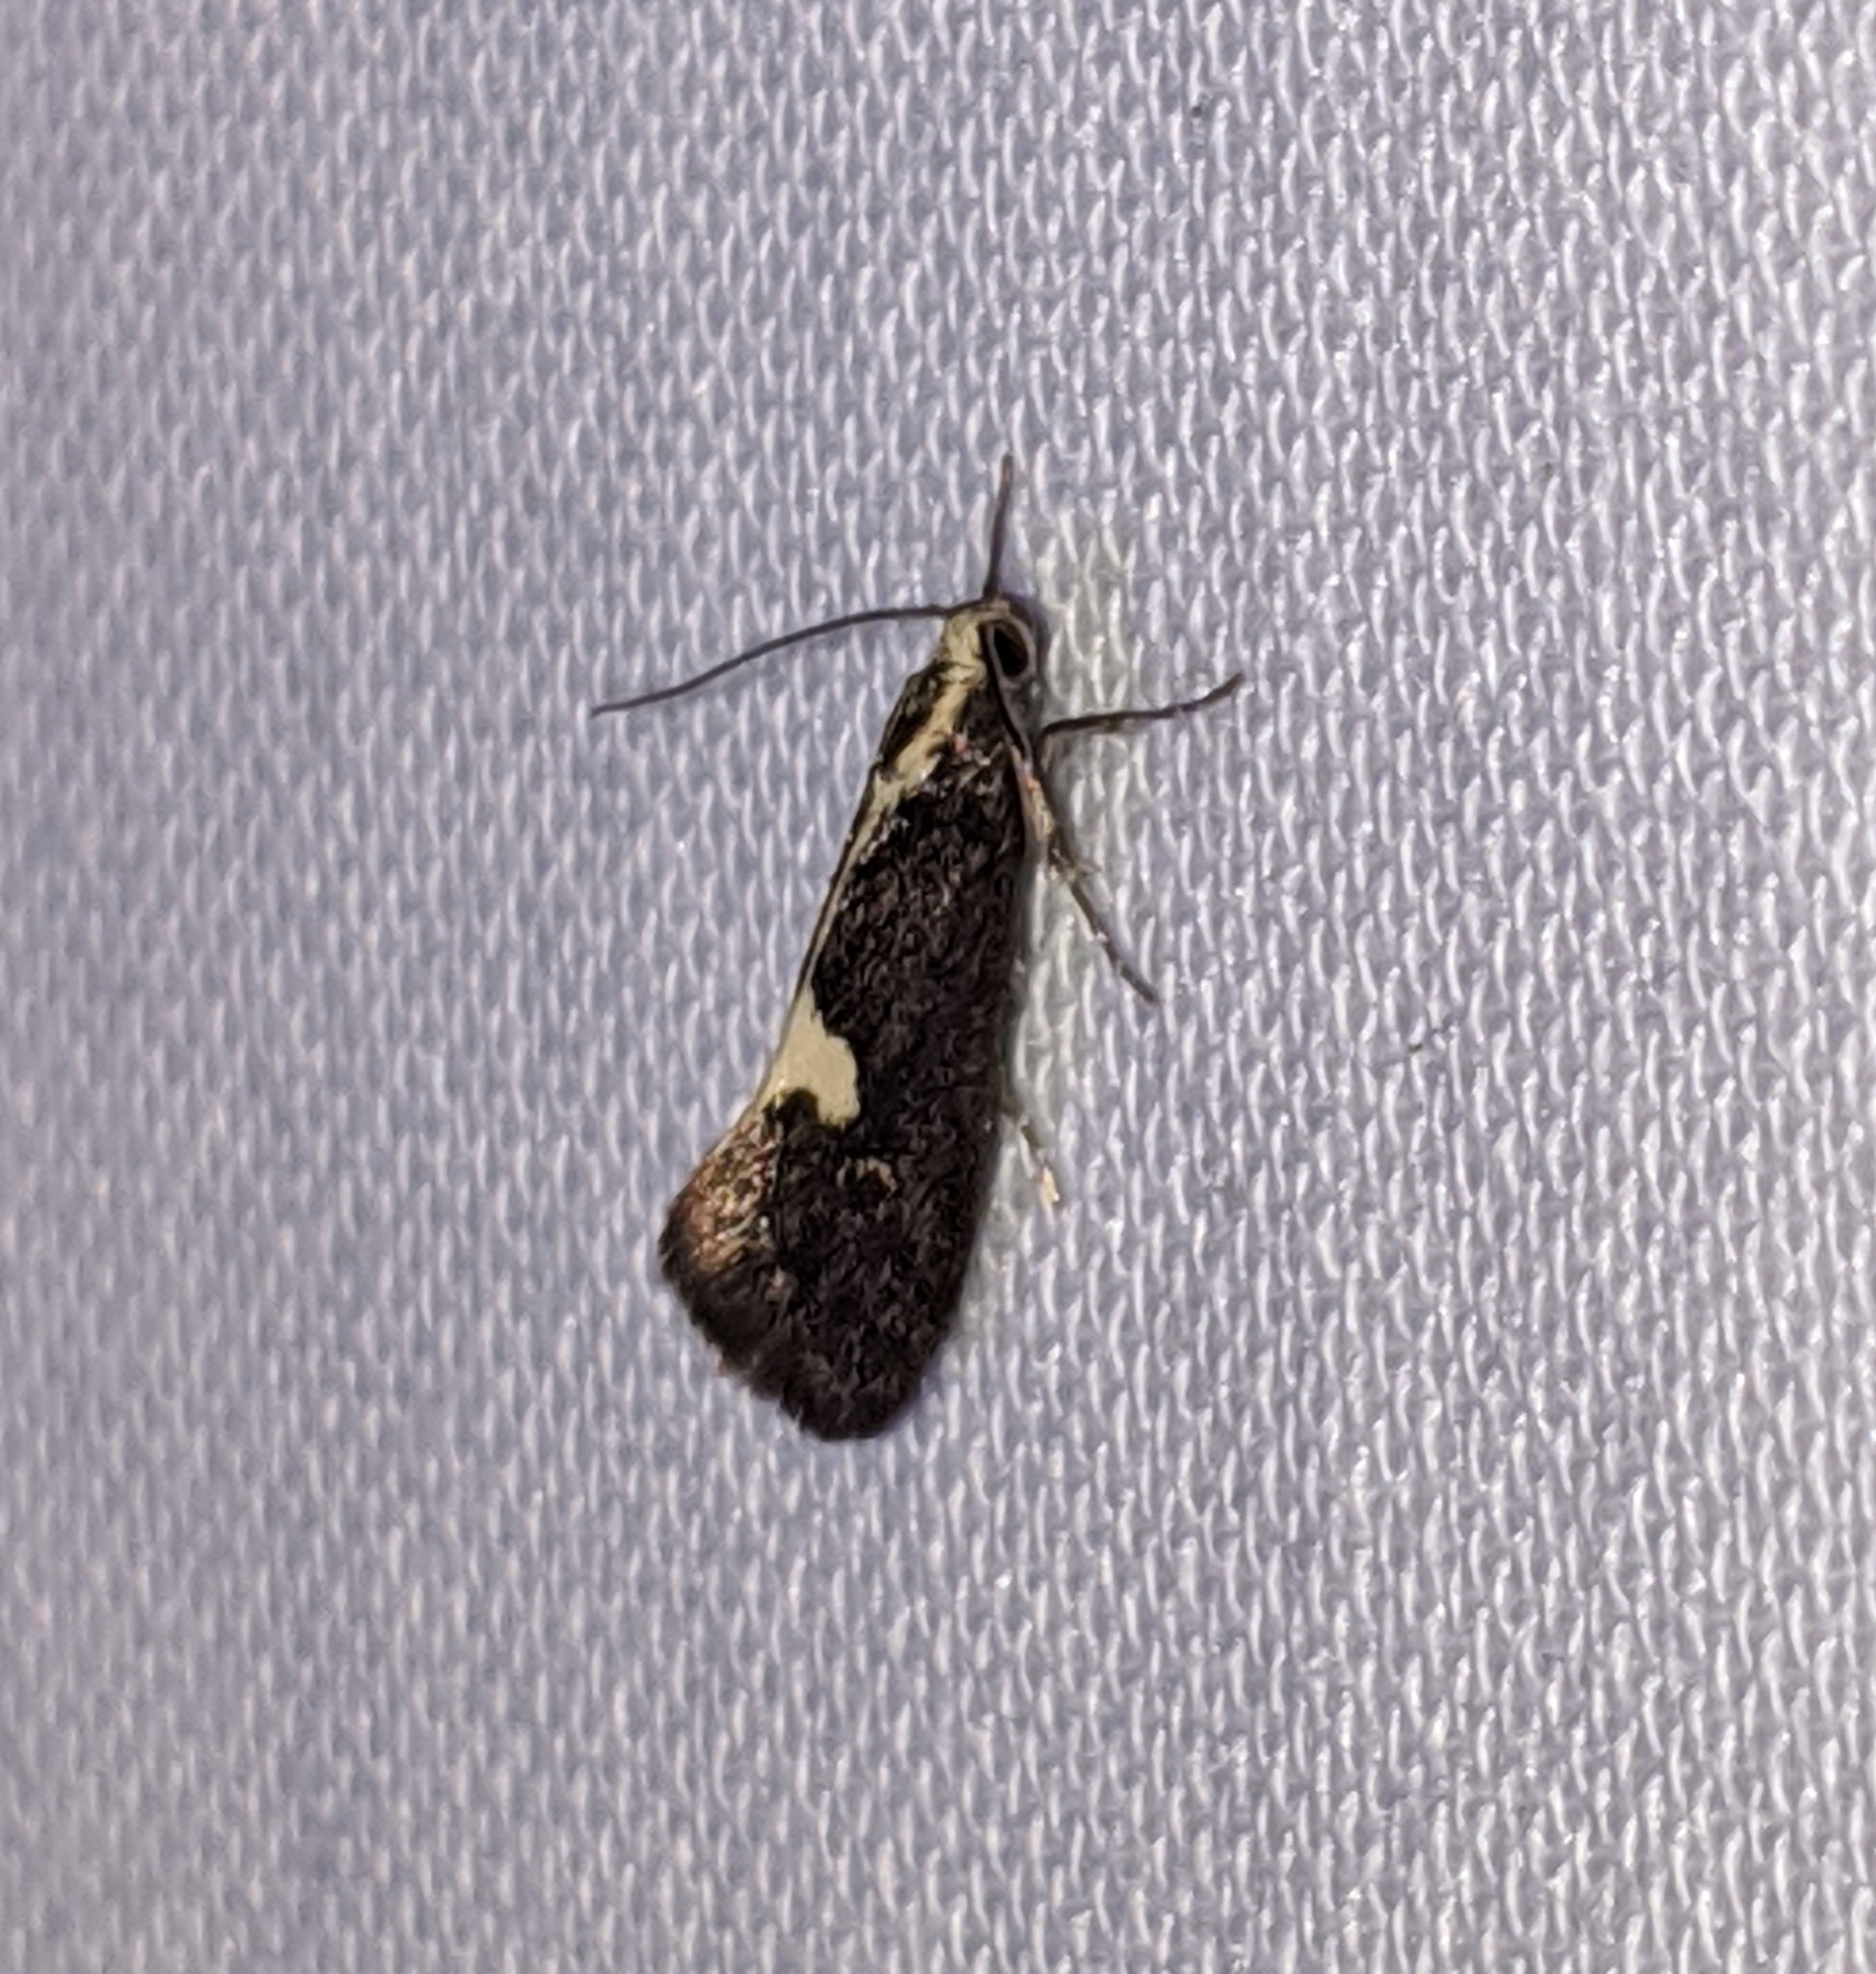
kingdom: Animalia
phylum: Arthropoda
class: Insecta
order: Lepidoptera
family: Oecophoridae
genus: Polix
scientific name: Polix coloradella
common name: Skunk moth
